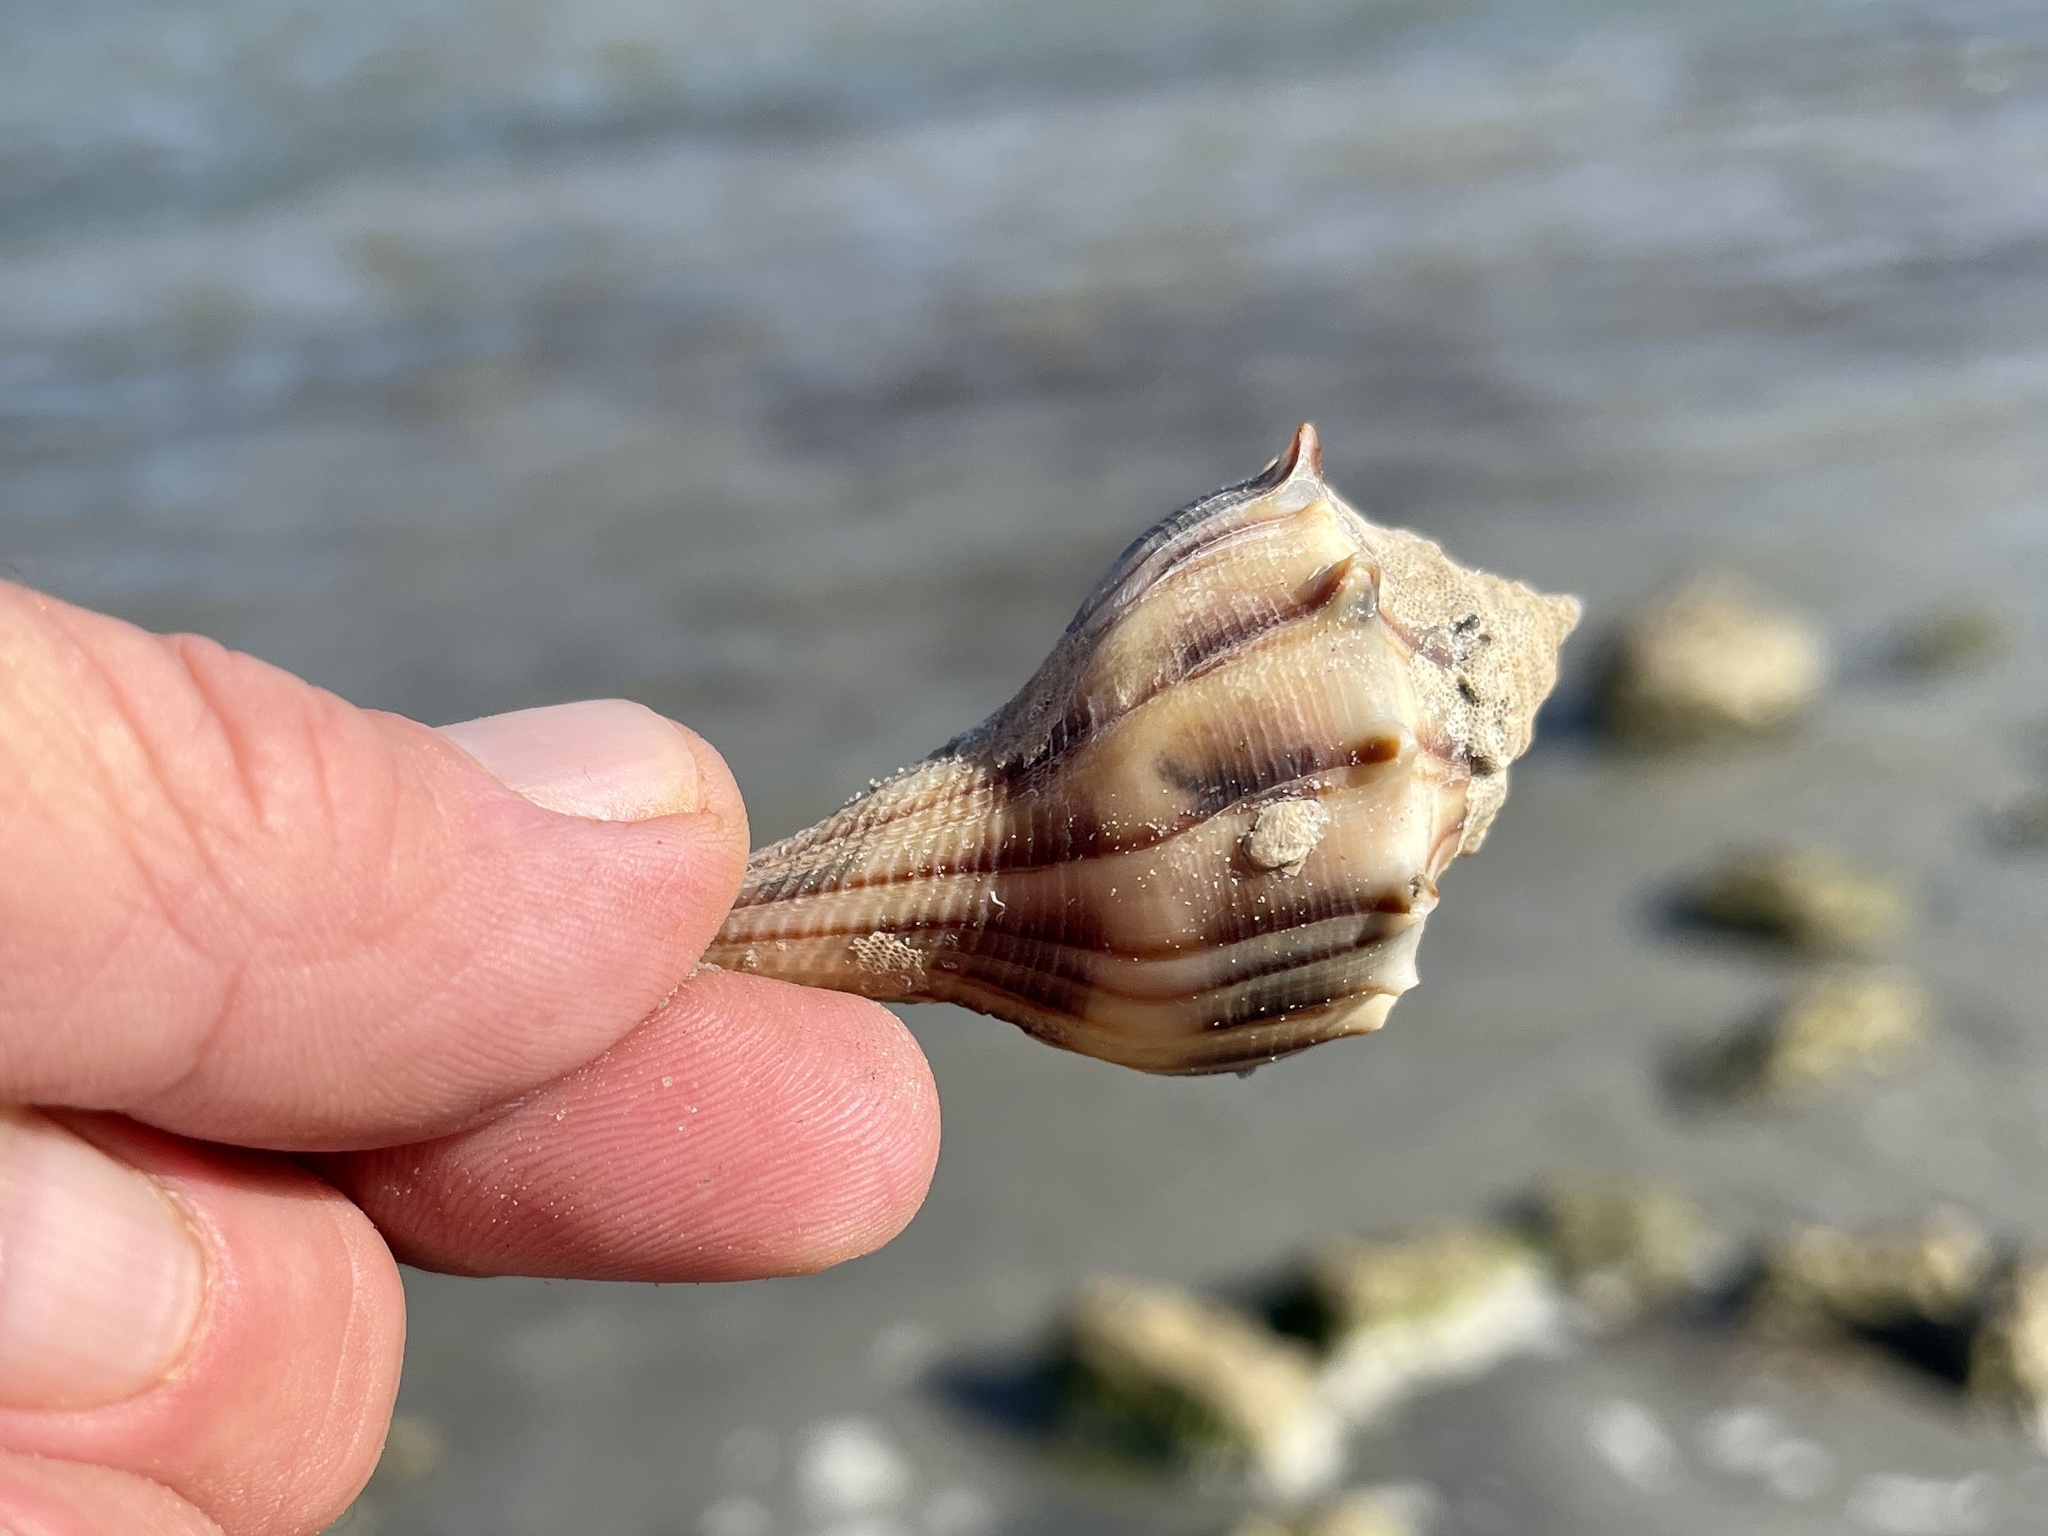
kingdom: Animalia
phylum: Mollusca
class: Gastropoda
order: Neogastropoda
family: Busyconidae
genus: Sinistrofulgur
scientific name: Sinistrofulgur pulleyi
